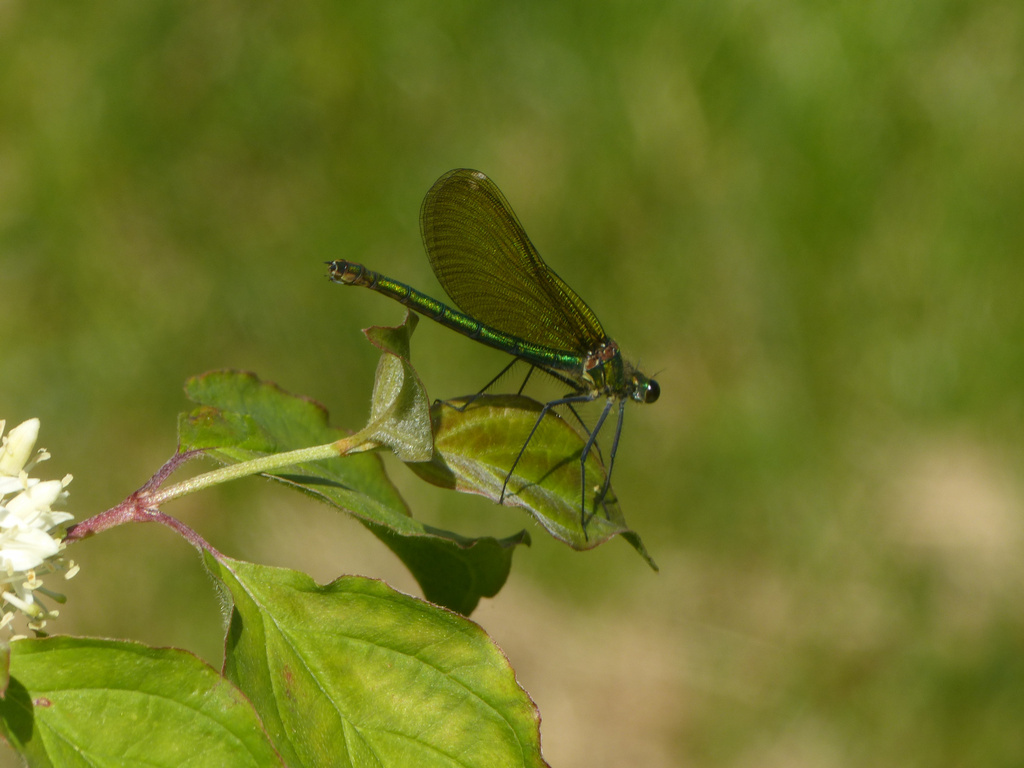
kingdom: Animalia
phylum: Arthropoda
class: Insecta
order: Odonata
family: Calopterygidae
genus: Calopteryx
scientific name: Calopteryx splendens
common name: Banded demoiselle
